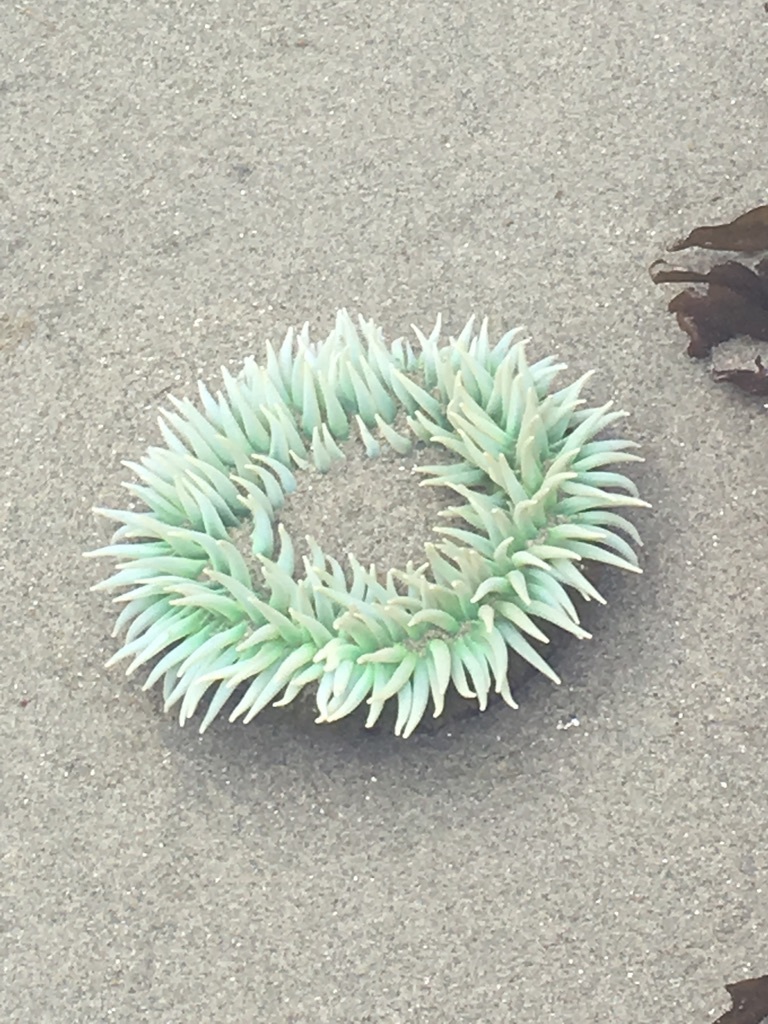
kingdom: Animalia
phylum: Cnidaria
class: Anthozoa
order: Actiniaria
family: Actiniidae
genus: Anthopleura
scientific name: Anthopleura xanthogrammica
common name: Giant green anemone
